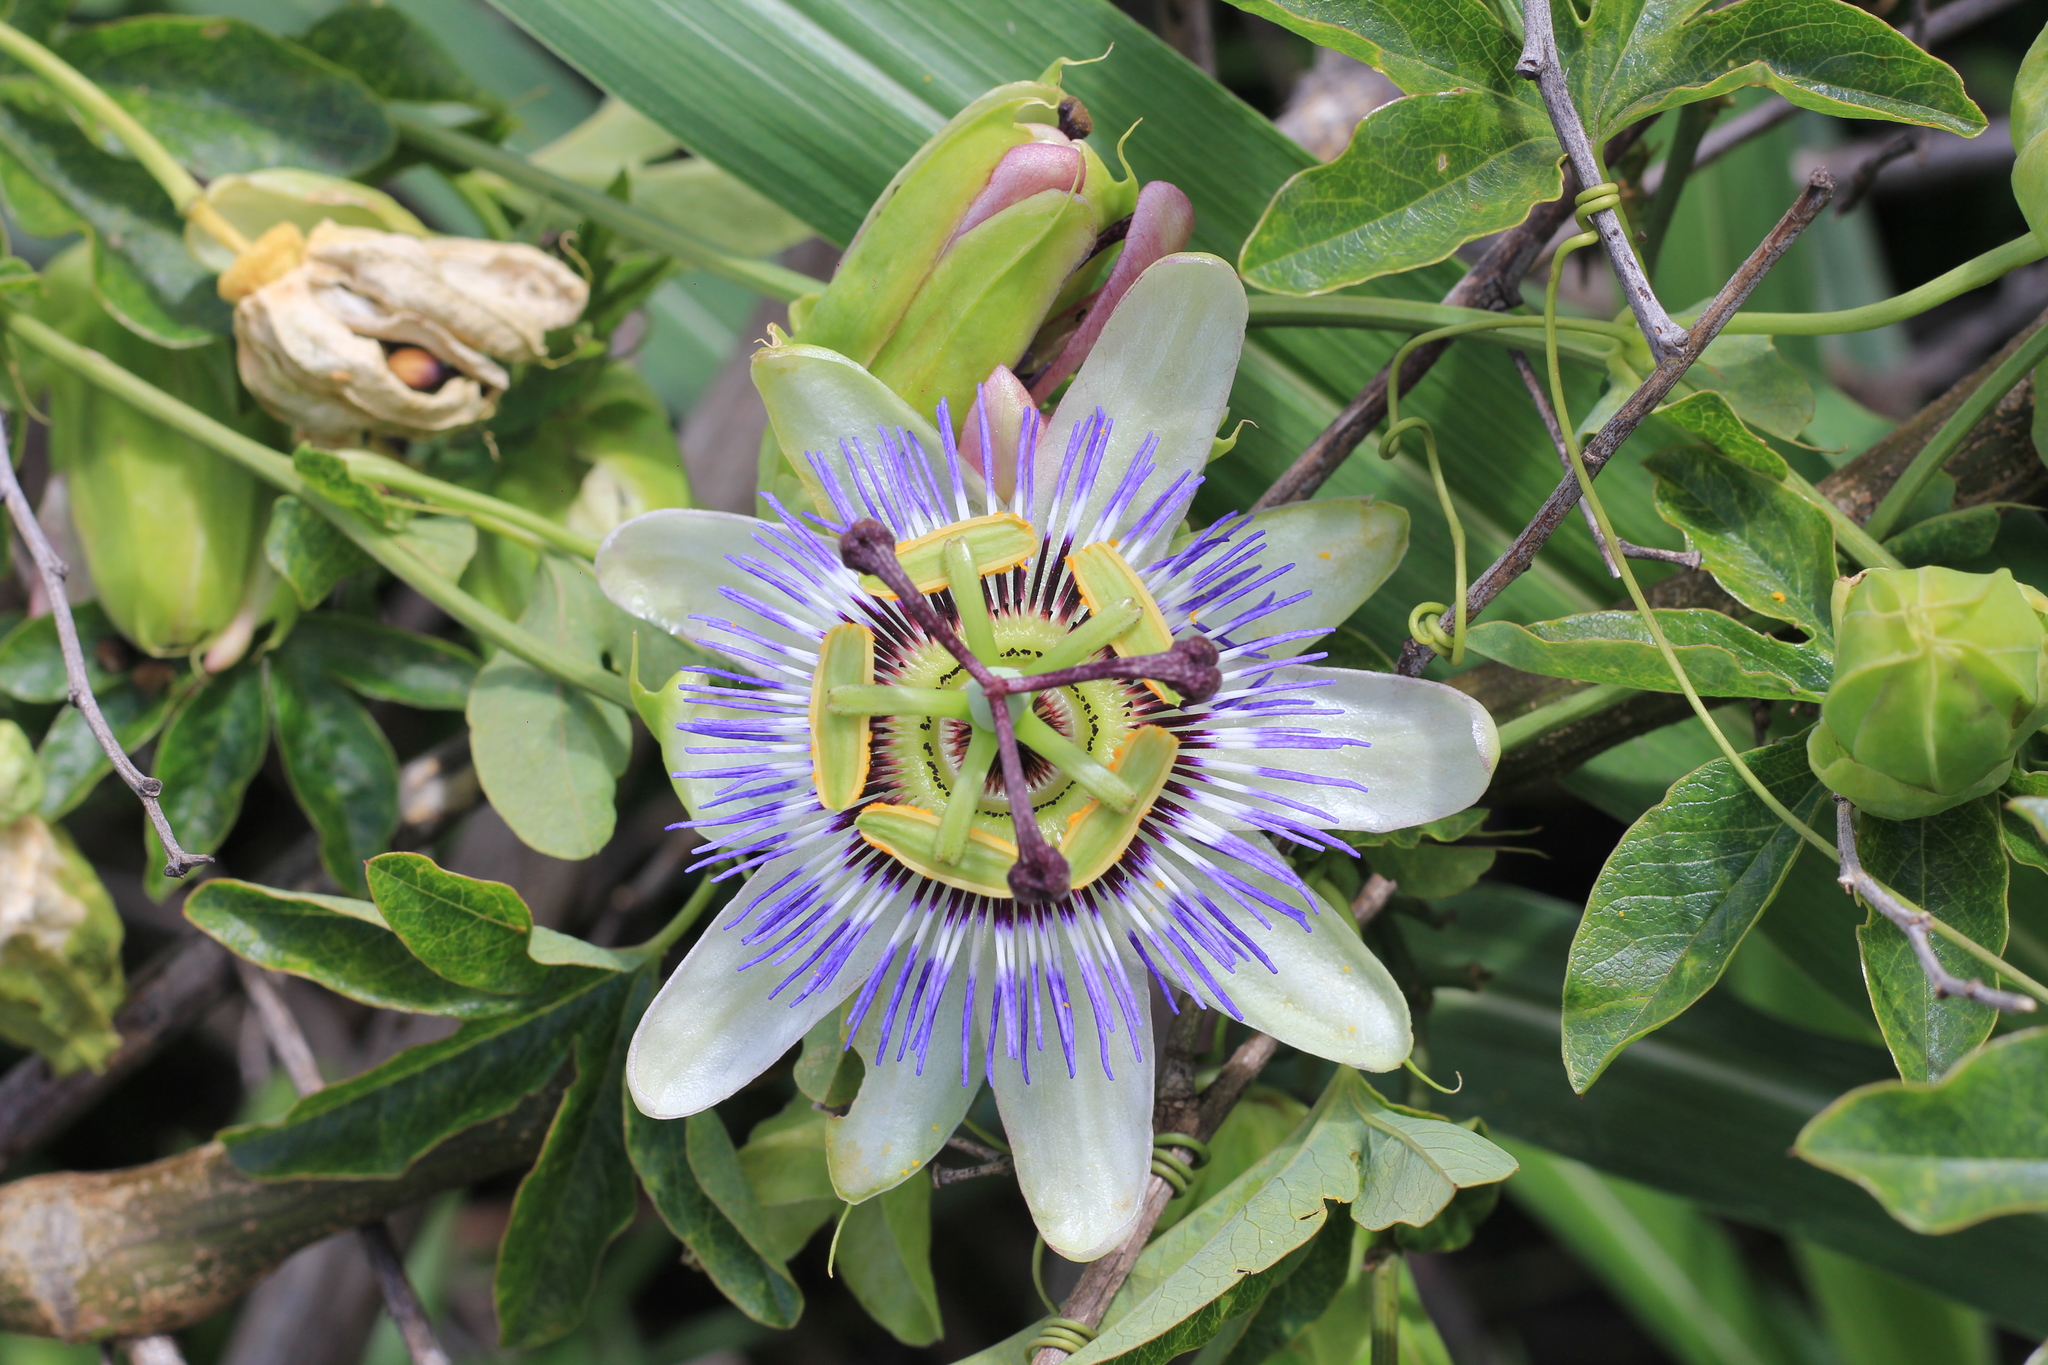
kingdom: Plantae
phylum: Tracheophyta
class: Magnoliopsida
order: Malpighiales
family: Passifloraceae
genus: Passiflora
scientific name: Passiflora caerulea
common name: Blue passionflower
